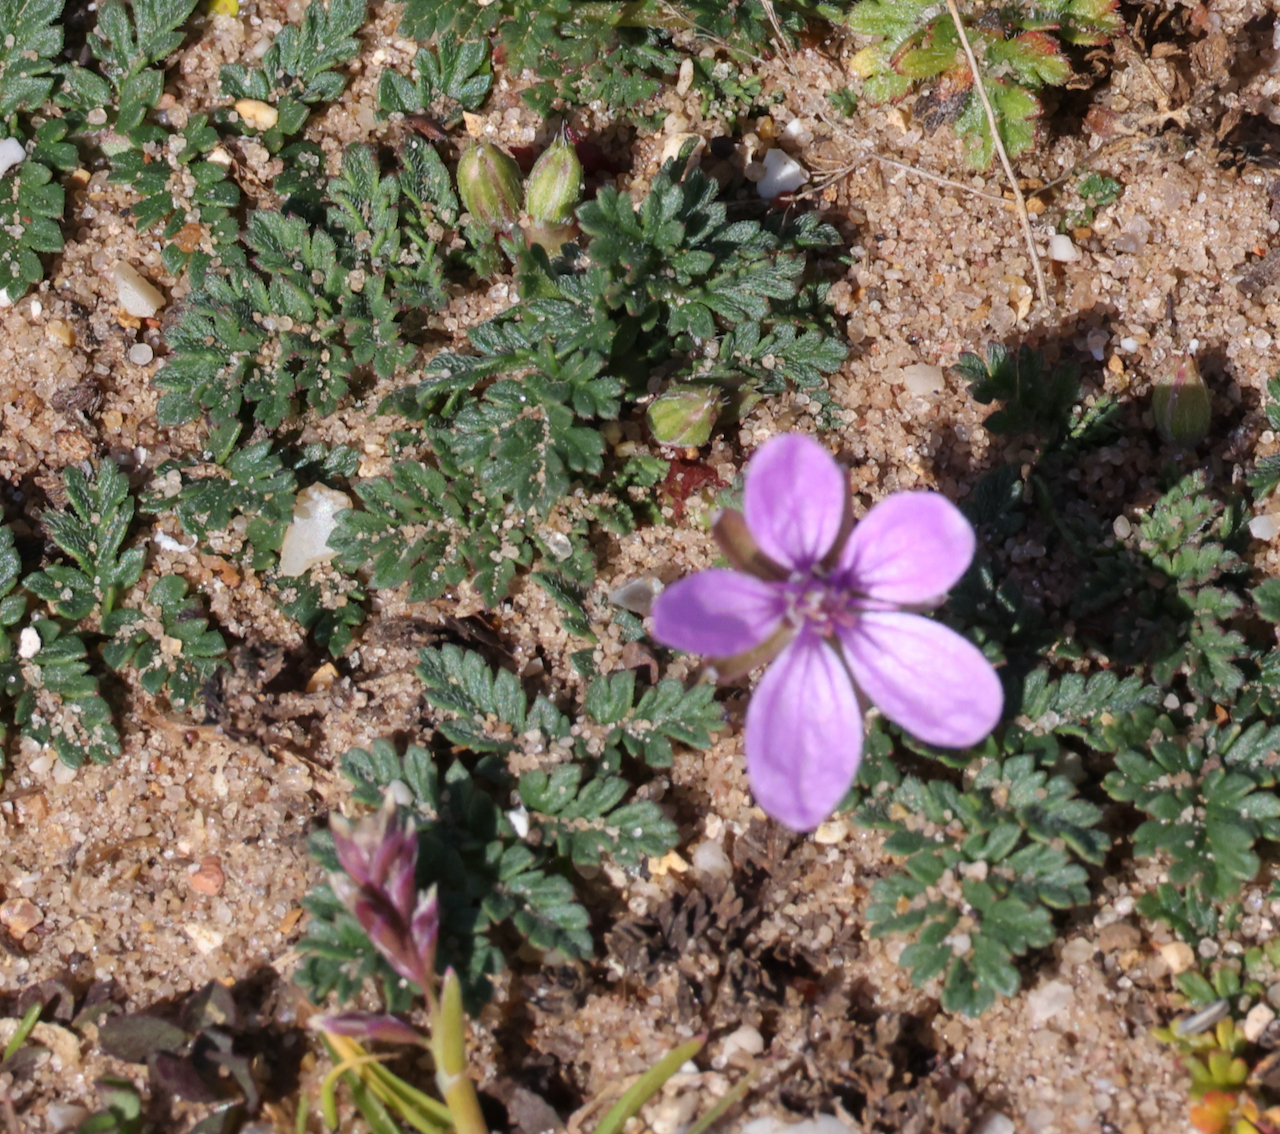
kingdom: Plantae
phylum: Tracheophyta
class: Magnoliopsida
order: Geraniales
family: Geraniaceae
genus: Erodium
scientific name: Erodium cicutarium
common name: Common stork's-bill
